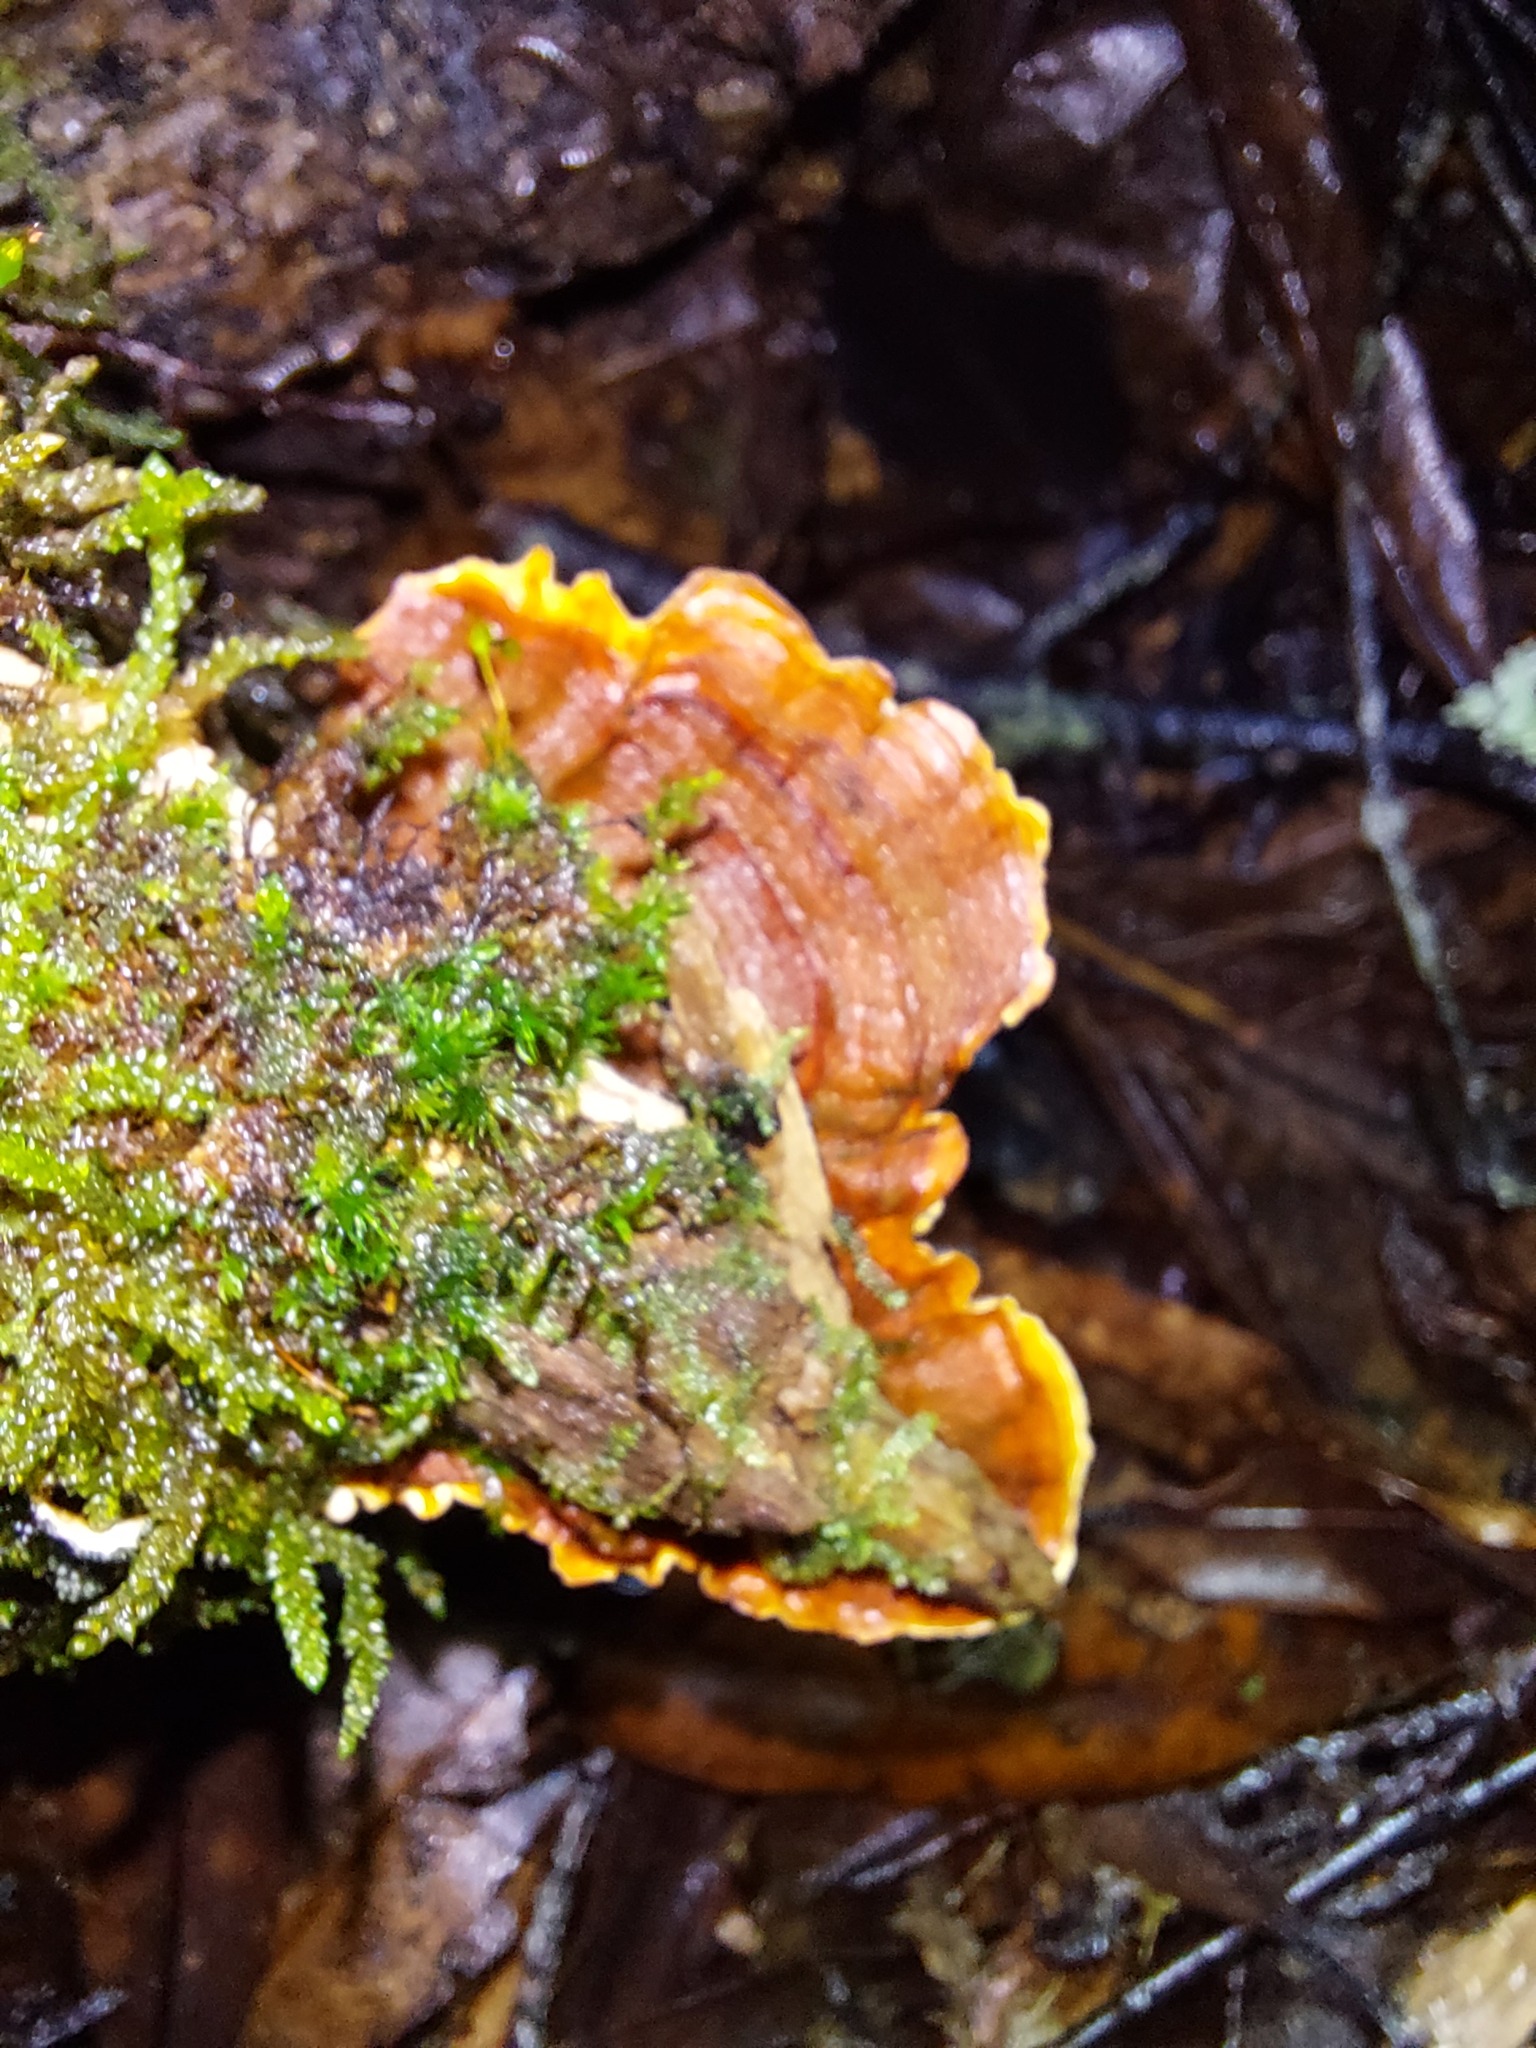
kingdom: Fungi
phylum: Basidiomycota
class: Agaricomycetes
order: Russulales
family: Stereaceae
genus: Stereum
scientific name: Stereum ostrea
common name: False turkeytail
